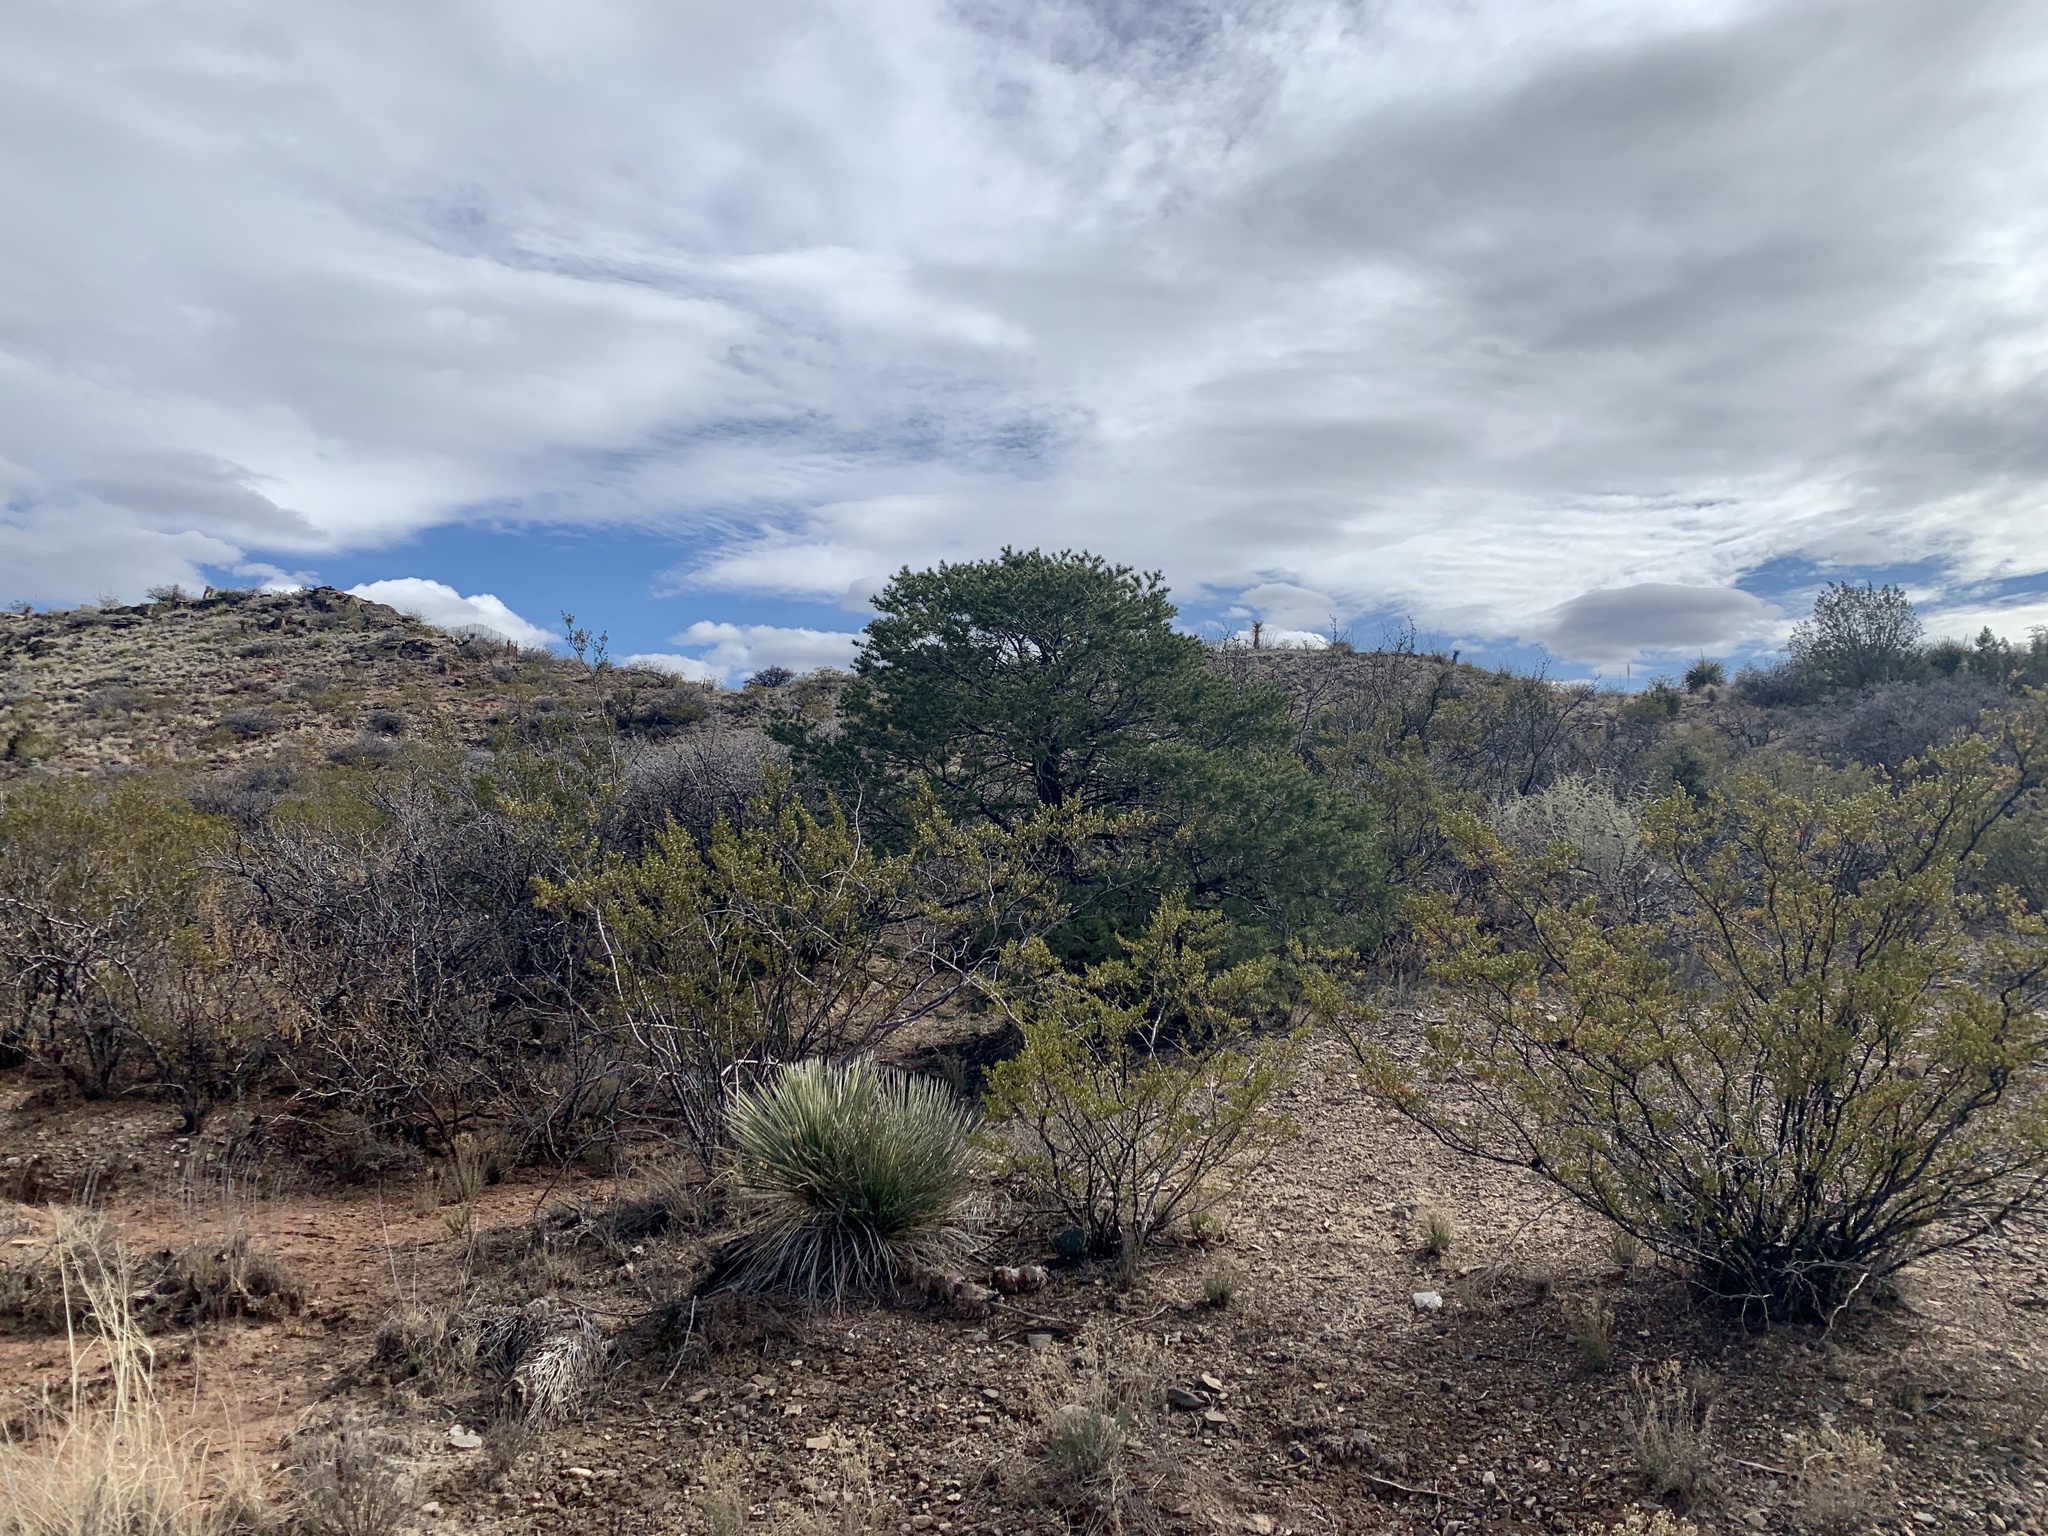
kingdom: Plantae
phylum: Tracheophyta
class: Pinopsida
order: Pinales
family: Pinaceae
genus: Pinus
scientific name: Pinus edulis
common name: Colorado pinyon
